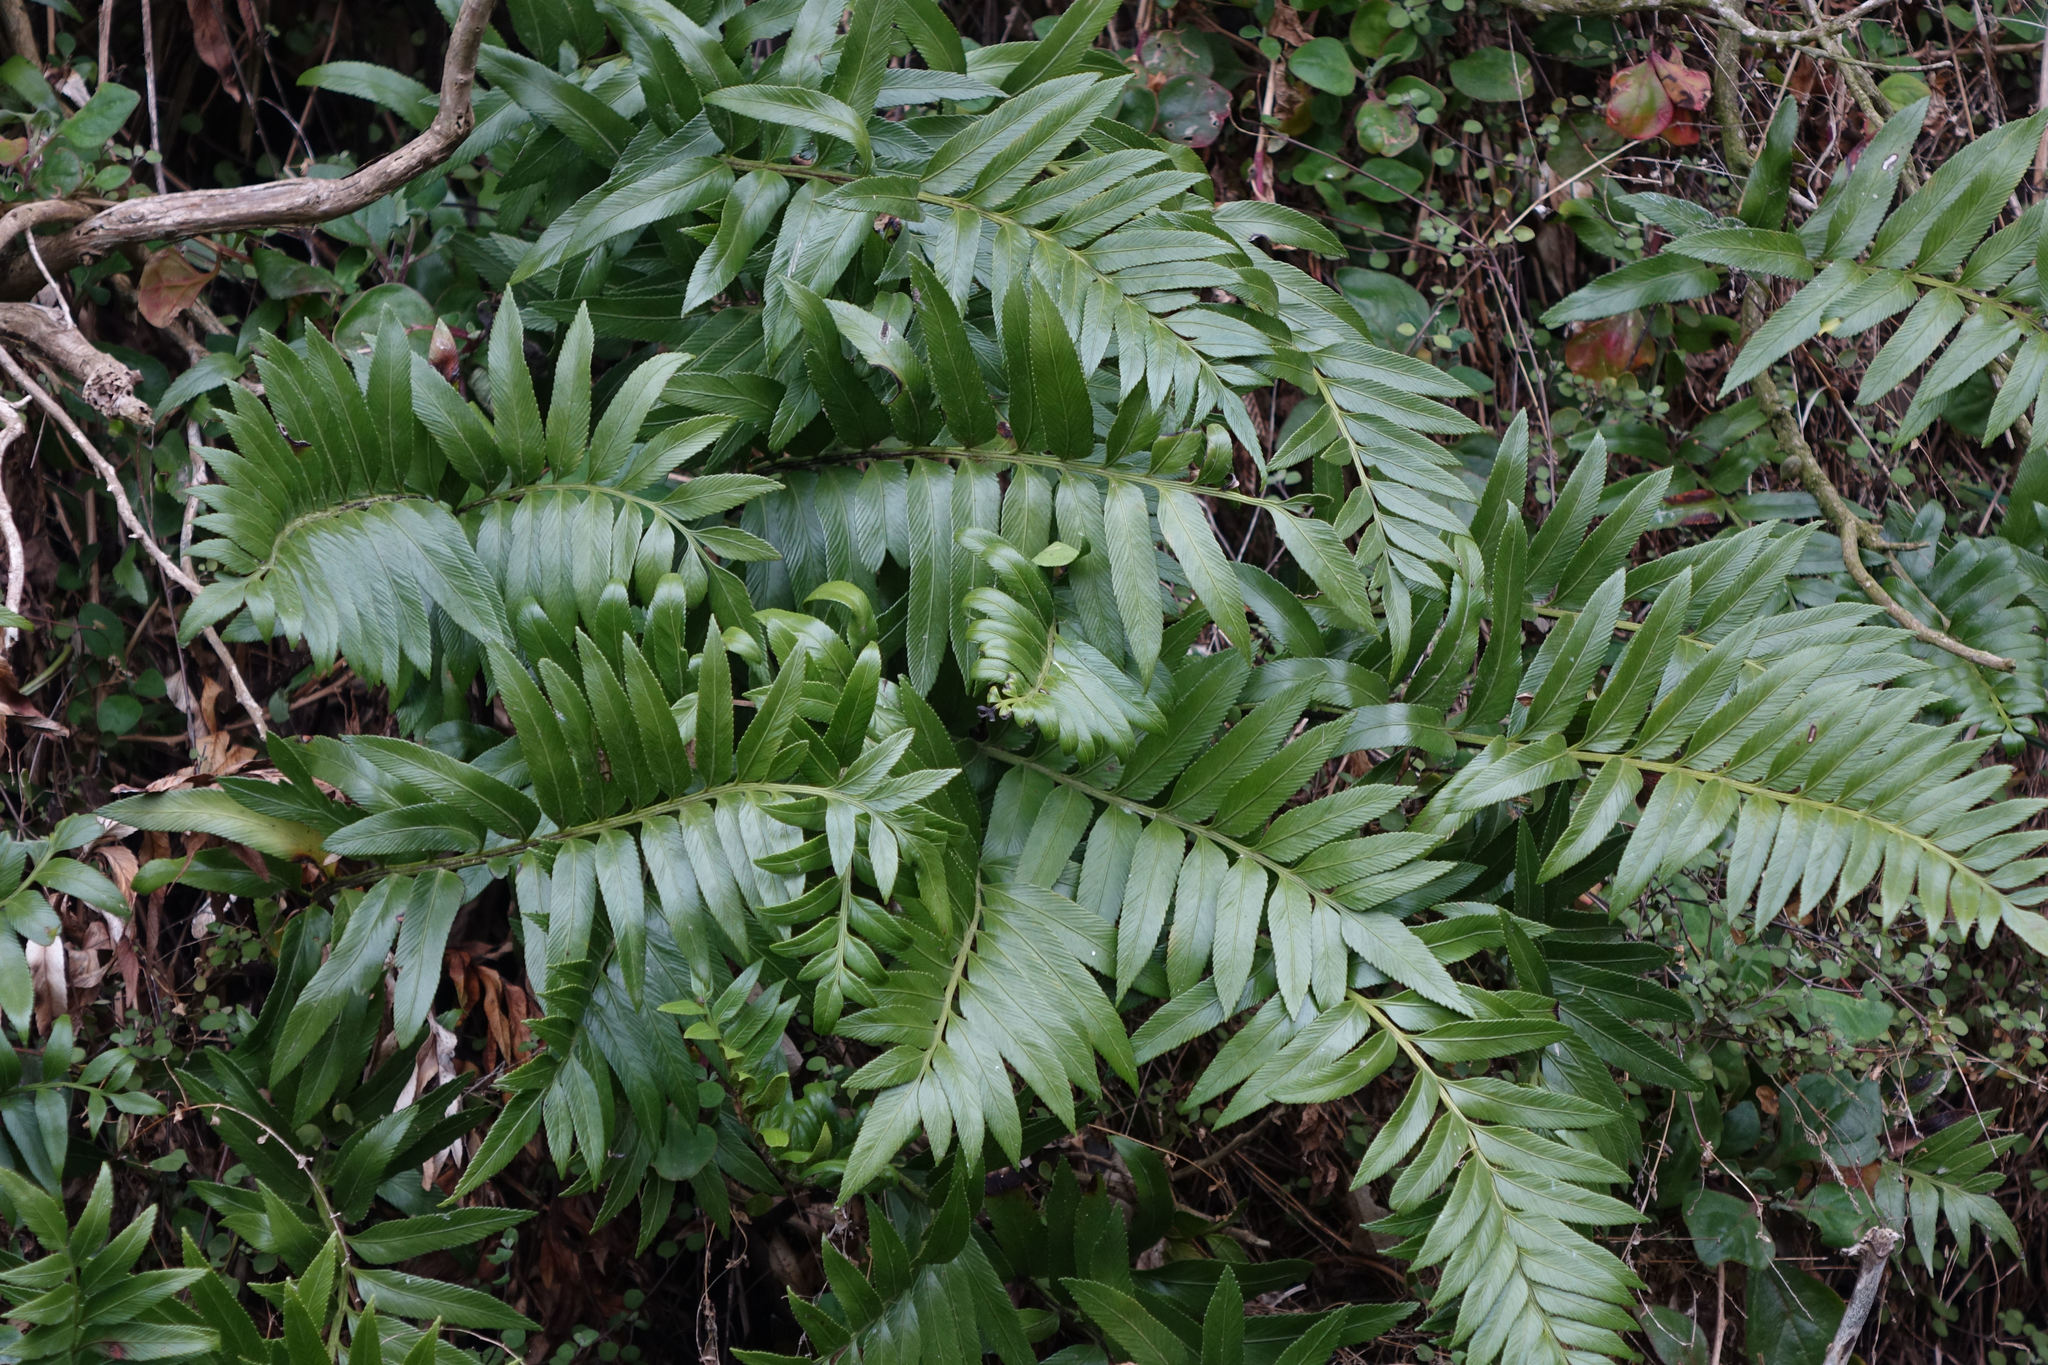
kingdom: Plantae
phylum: Tracheophyta
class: Polypodiopsida
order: Polypodiales
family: Aspleniaceae
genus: Asplenium
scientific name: Asplenium obtusatum
